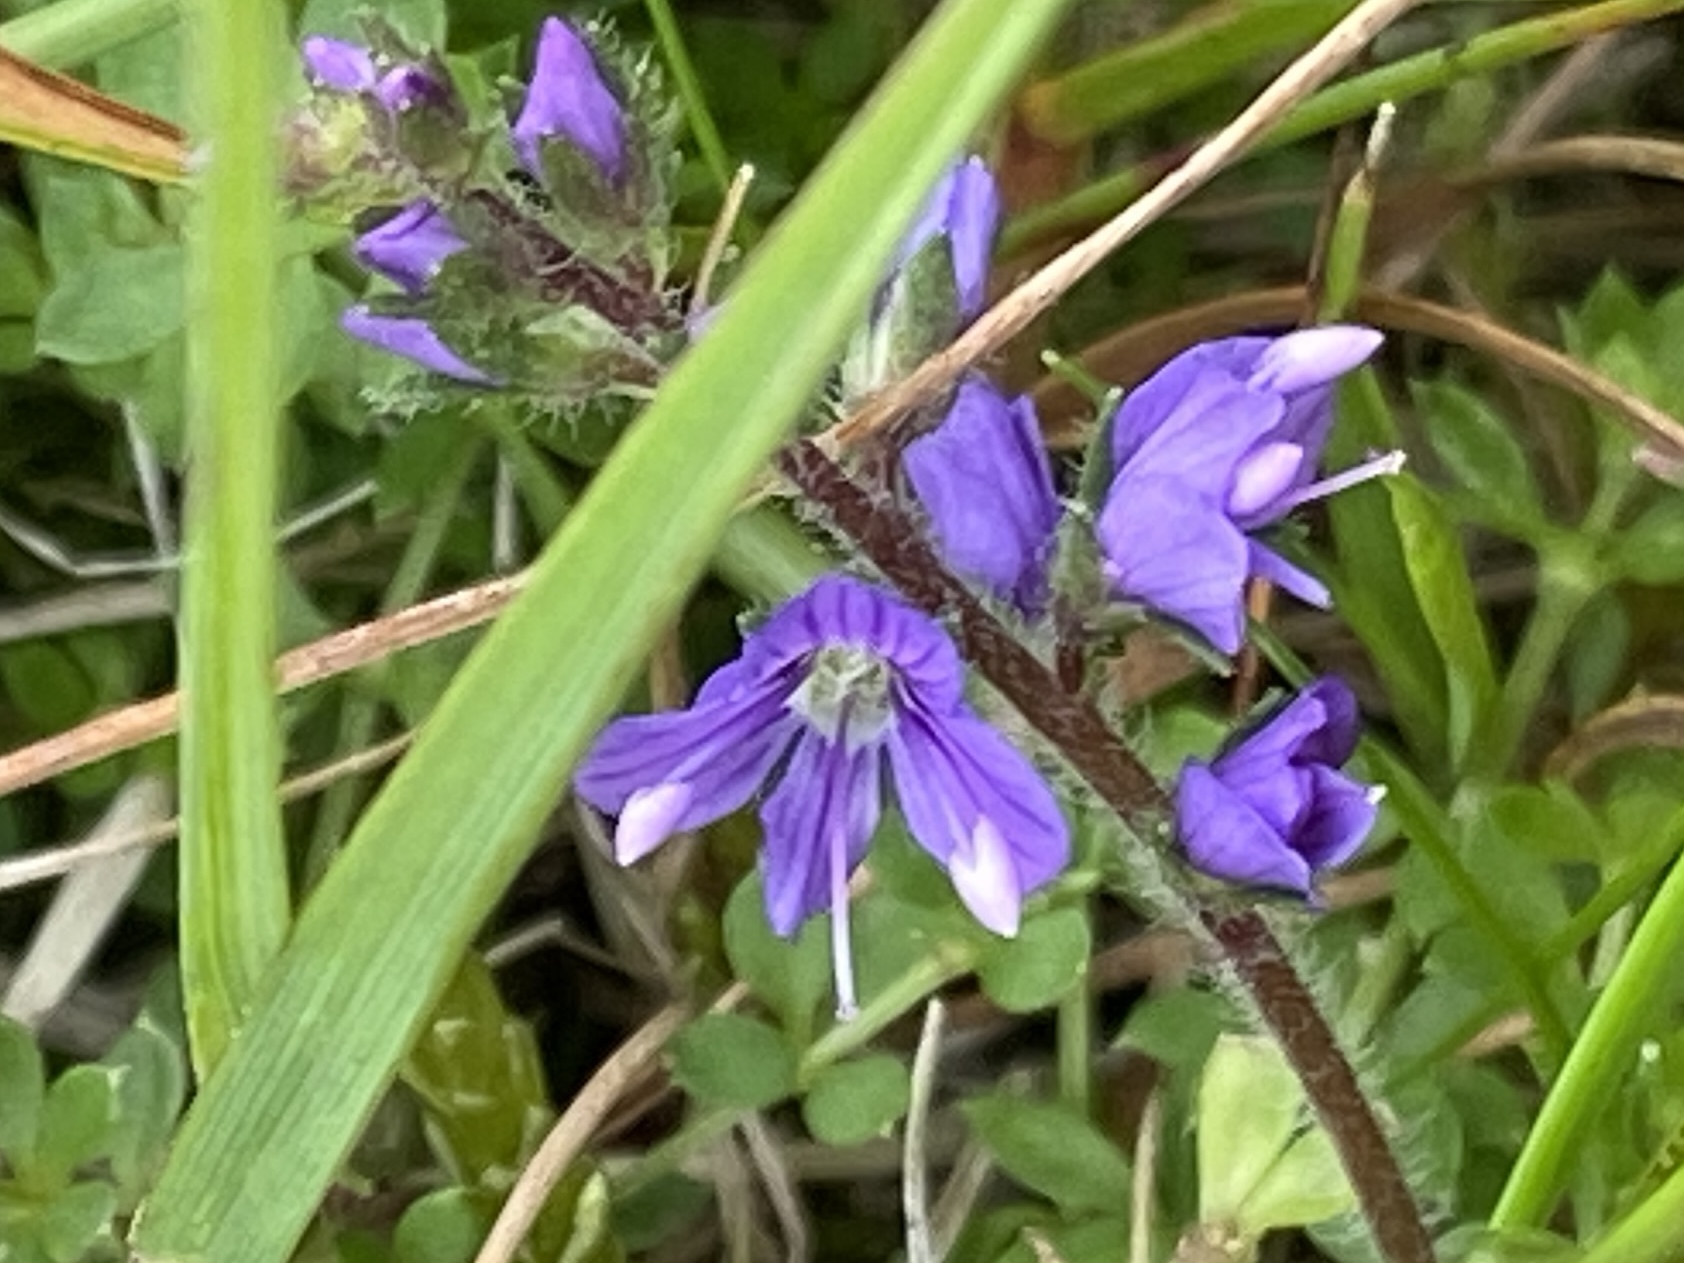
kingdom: Plantae
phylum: Tracheophyta
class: Magnoliopsida
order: Lamiales
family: Plantaginaceae
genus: Veronica
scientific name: Veronica officinalis
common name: Common speedwell
